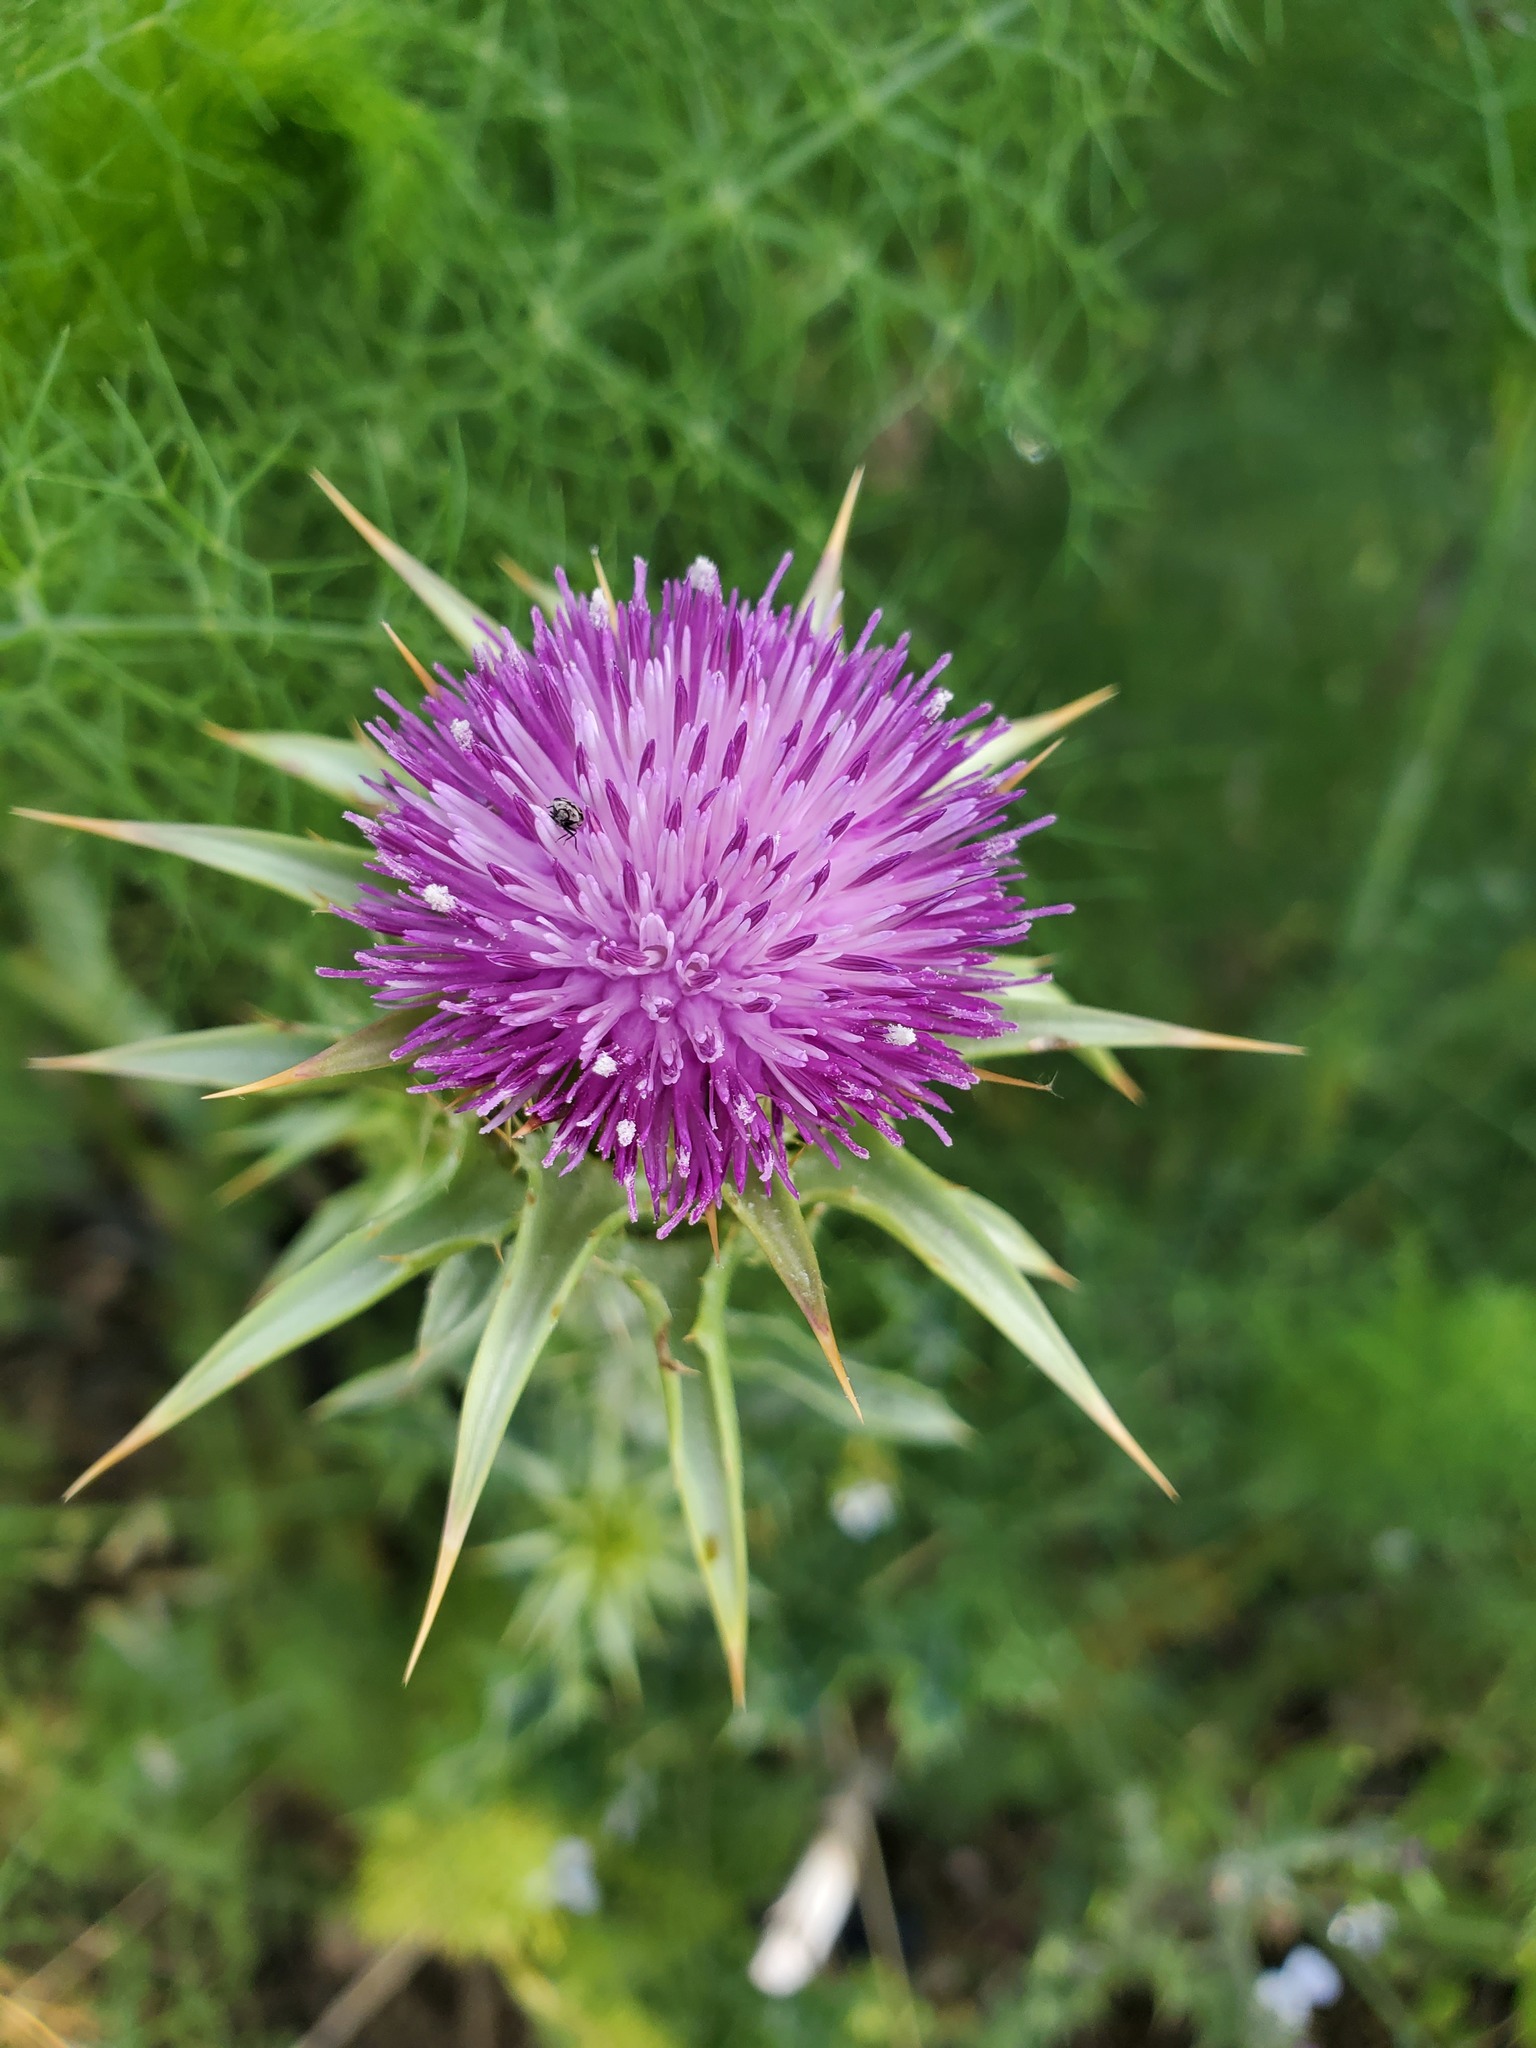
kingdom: Plantae
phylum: Tracheophyta
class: Magnoliopsida
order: Asterales
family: Asteraceae
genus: Silybum
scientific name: Silybum marianum
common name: Milk thistle
